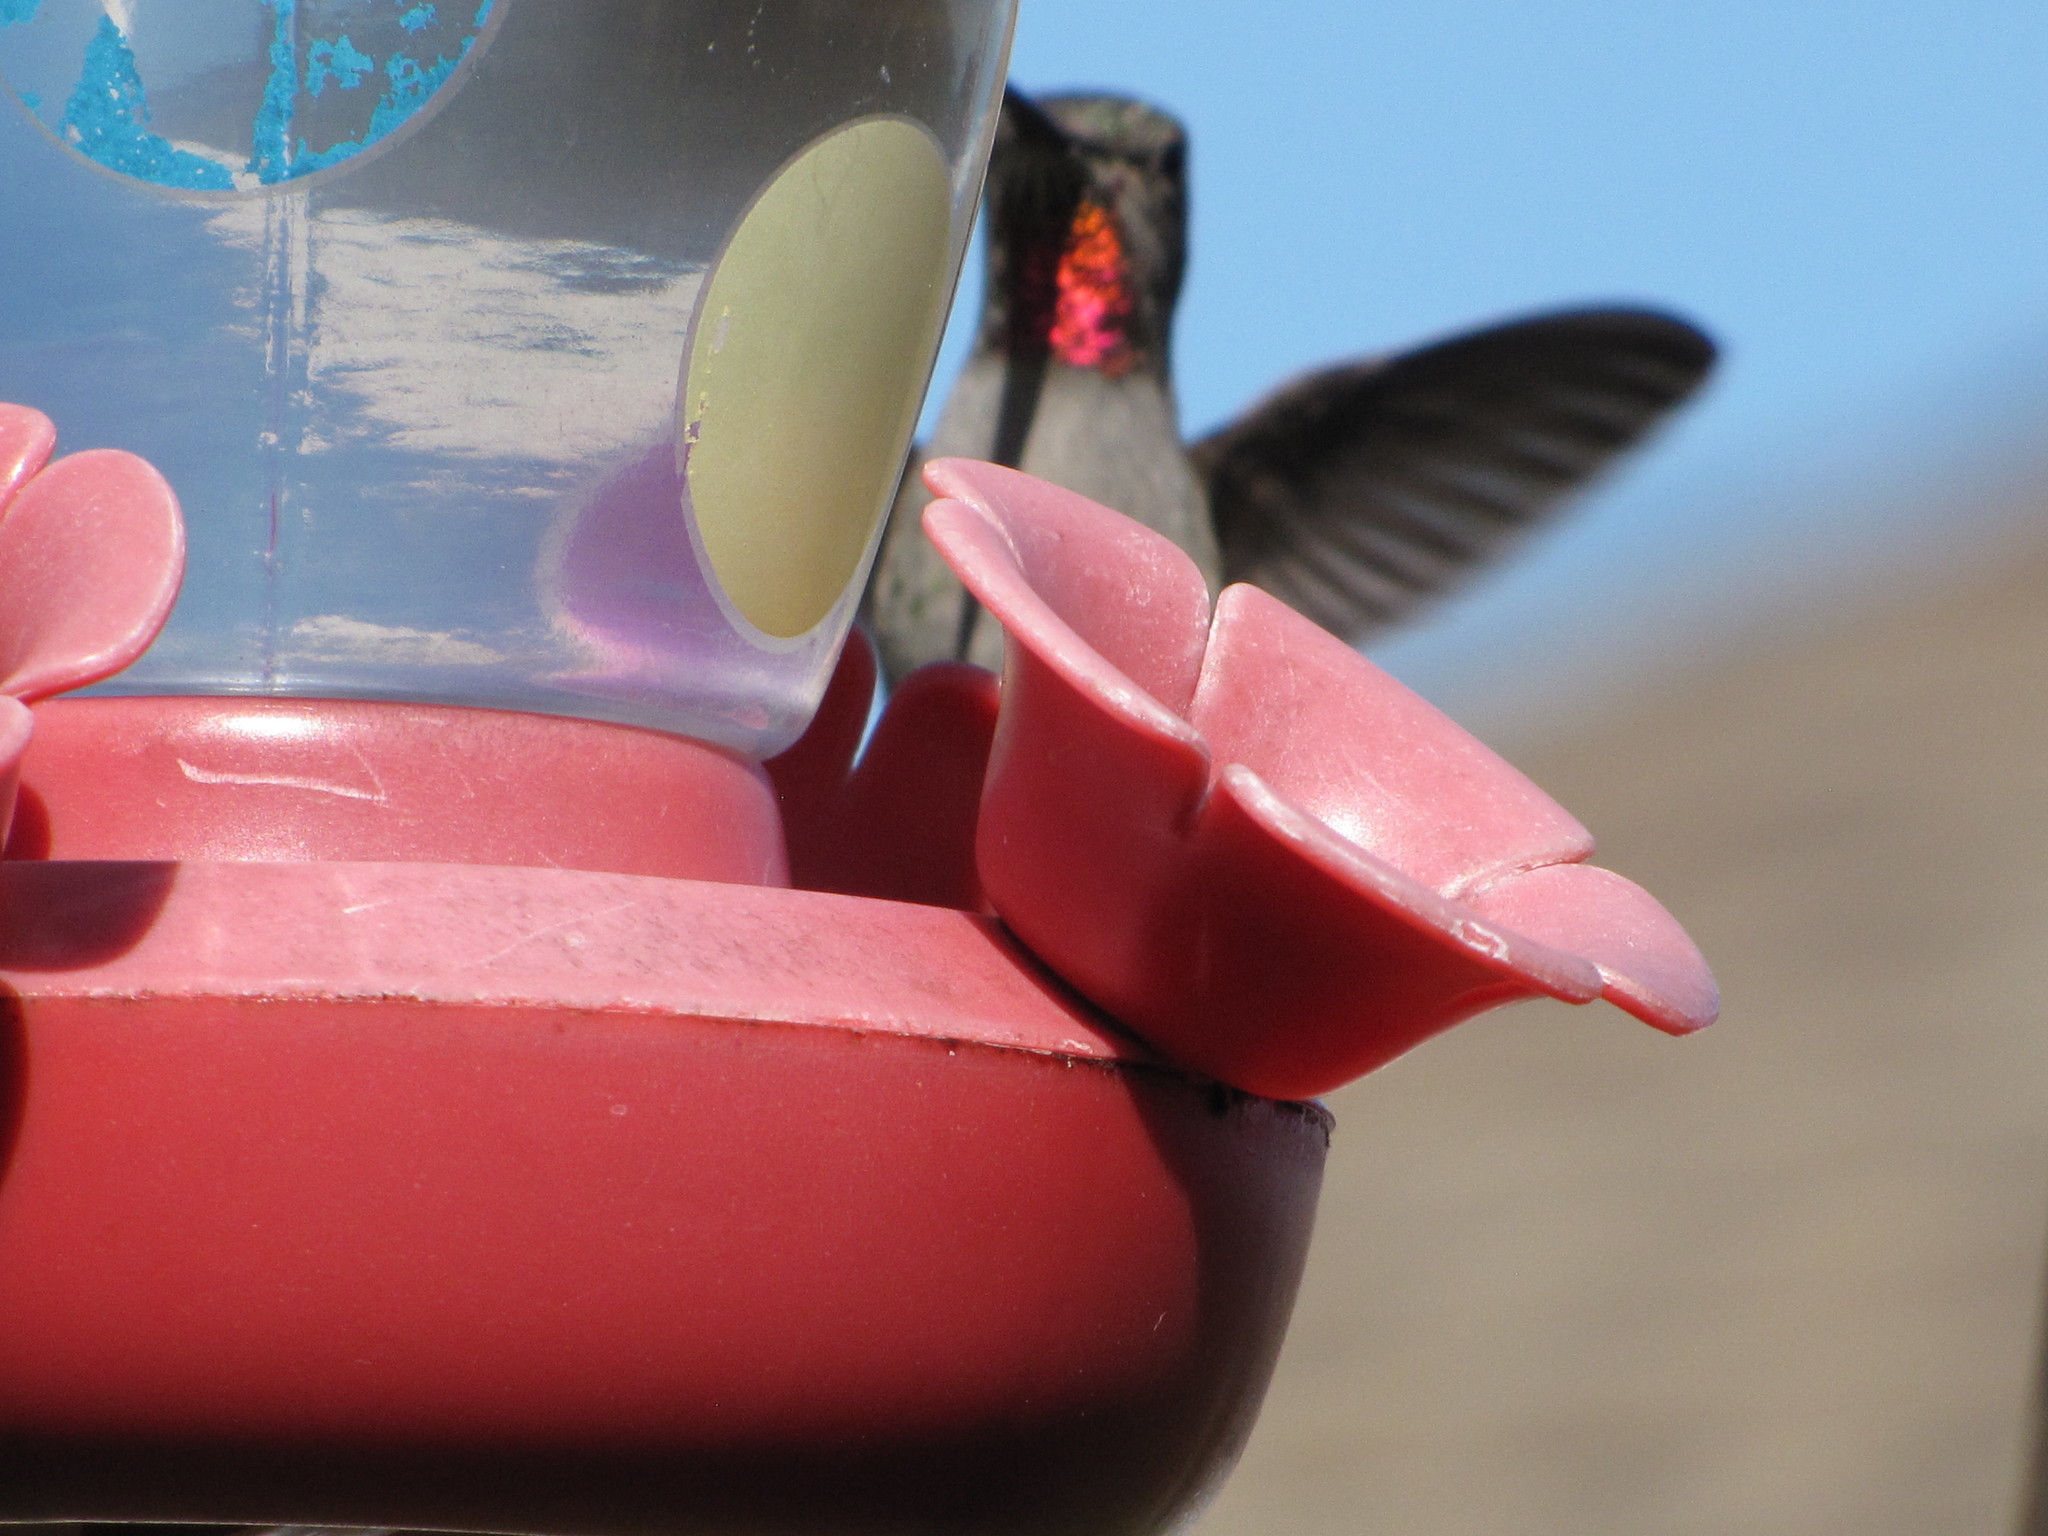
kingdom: Animalia
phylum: Chordata
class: Aves
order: Apodiformes
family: Trochilidae
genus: Calypte
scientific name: Calypte anna
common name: Anna's hummingbird
